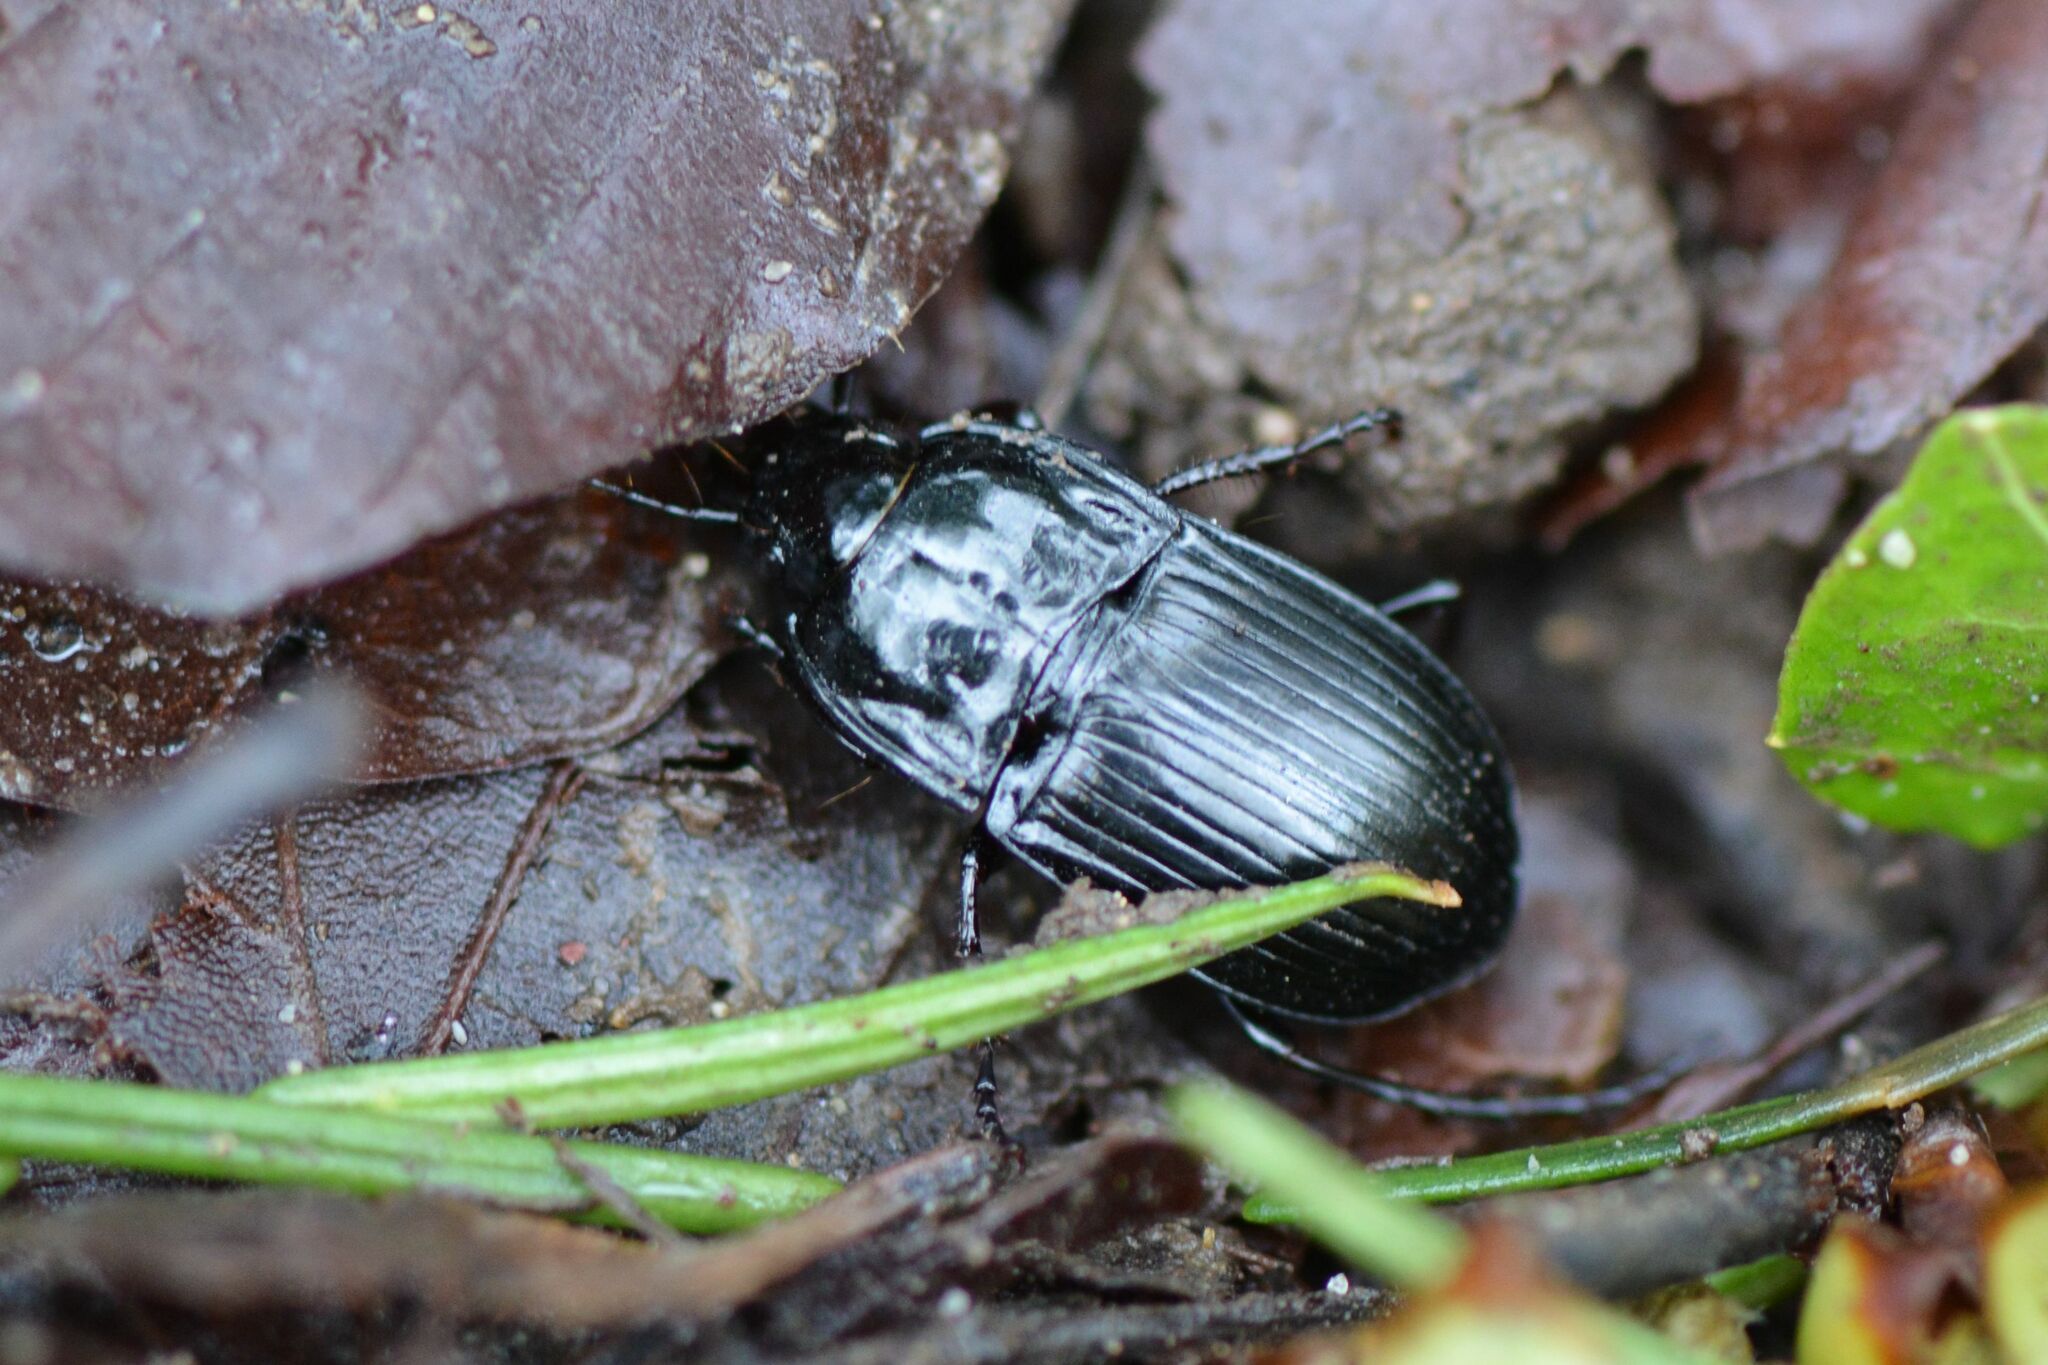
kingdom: Animalia
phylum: Arthropoda
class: Insecta
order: Coleoptera
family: Carabidae
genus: Abax
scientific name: Abax ovalis
